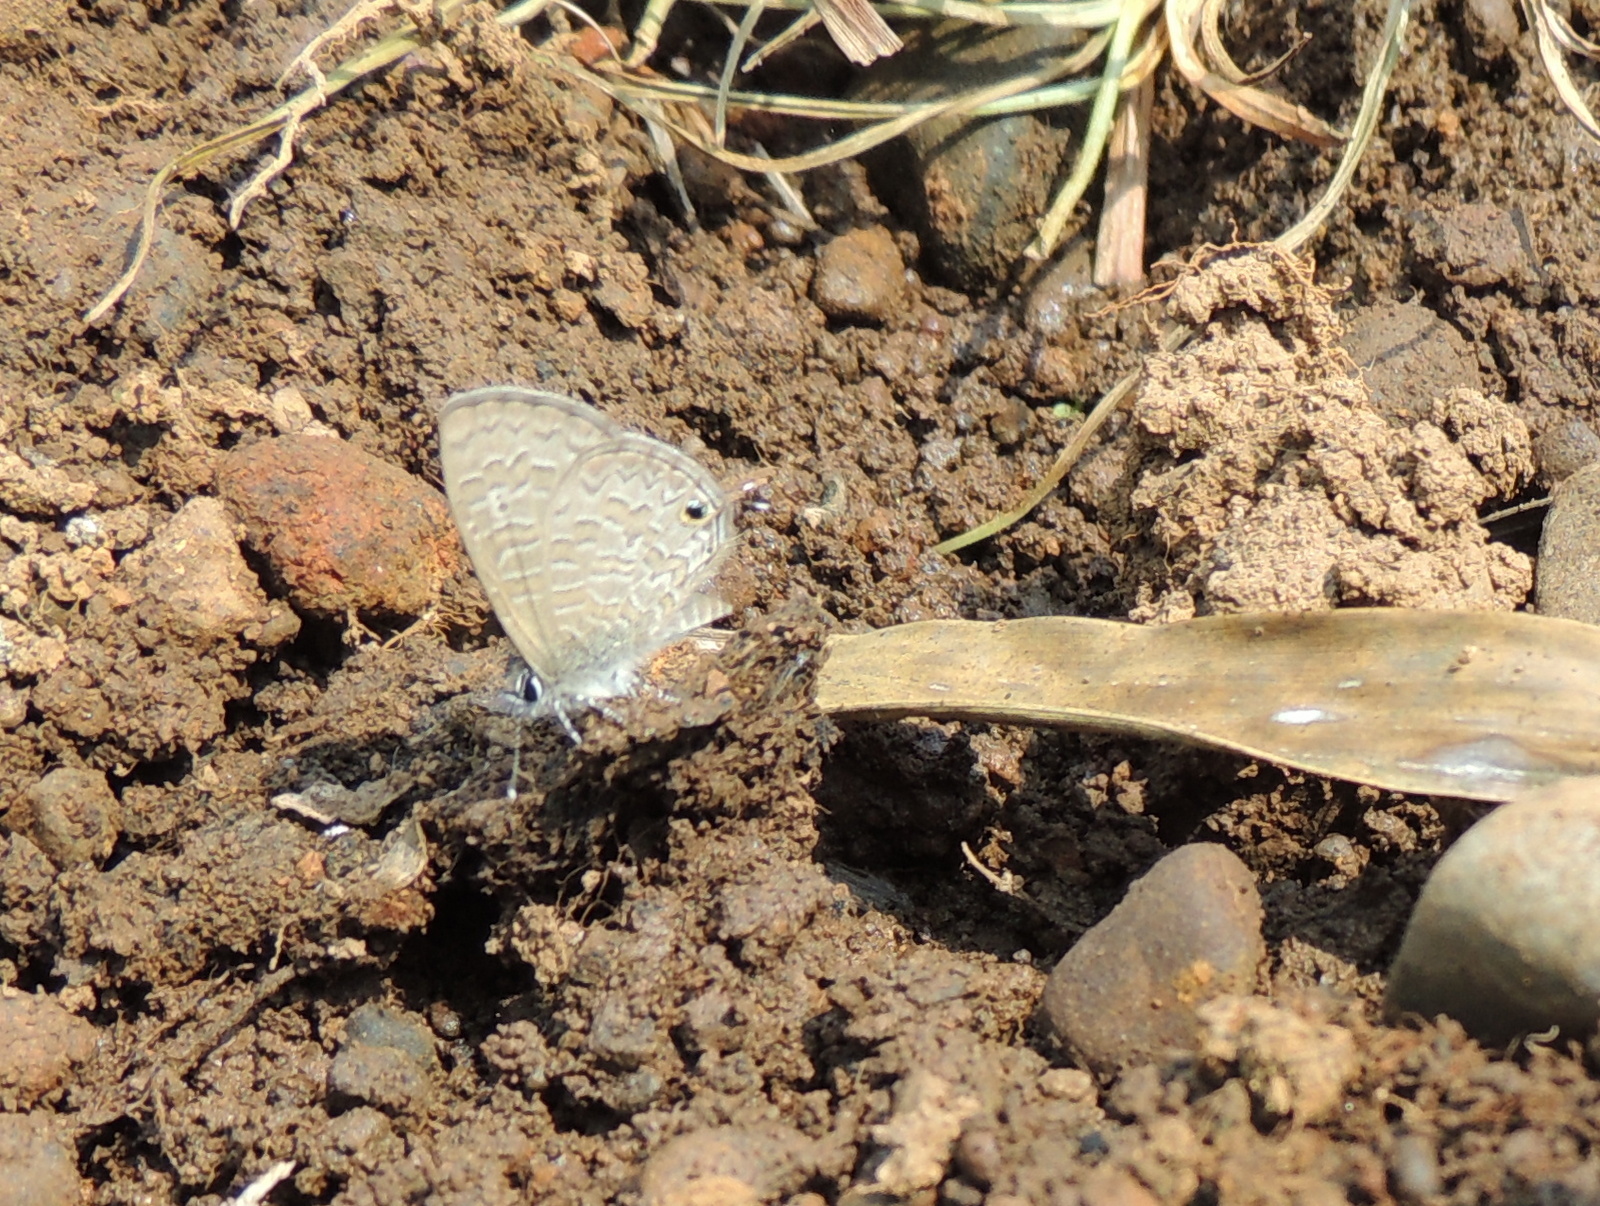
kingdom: Animalia
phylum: Arthropoda
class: Insecta
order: Lepidoptera
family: Lycaenidae
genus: Prosotas
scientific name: Prosotas nora
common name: Common line blue
